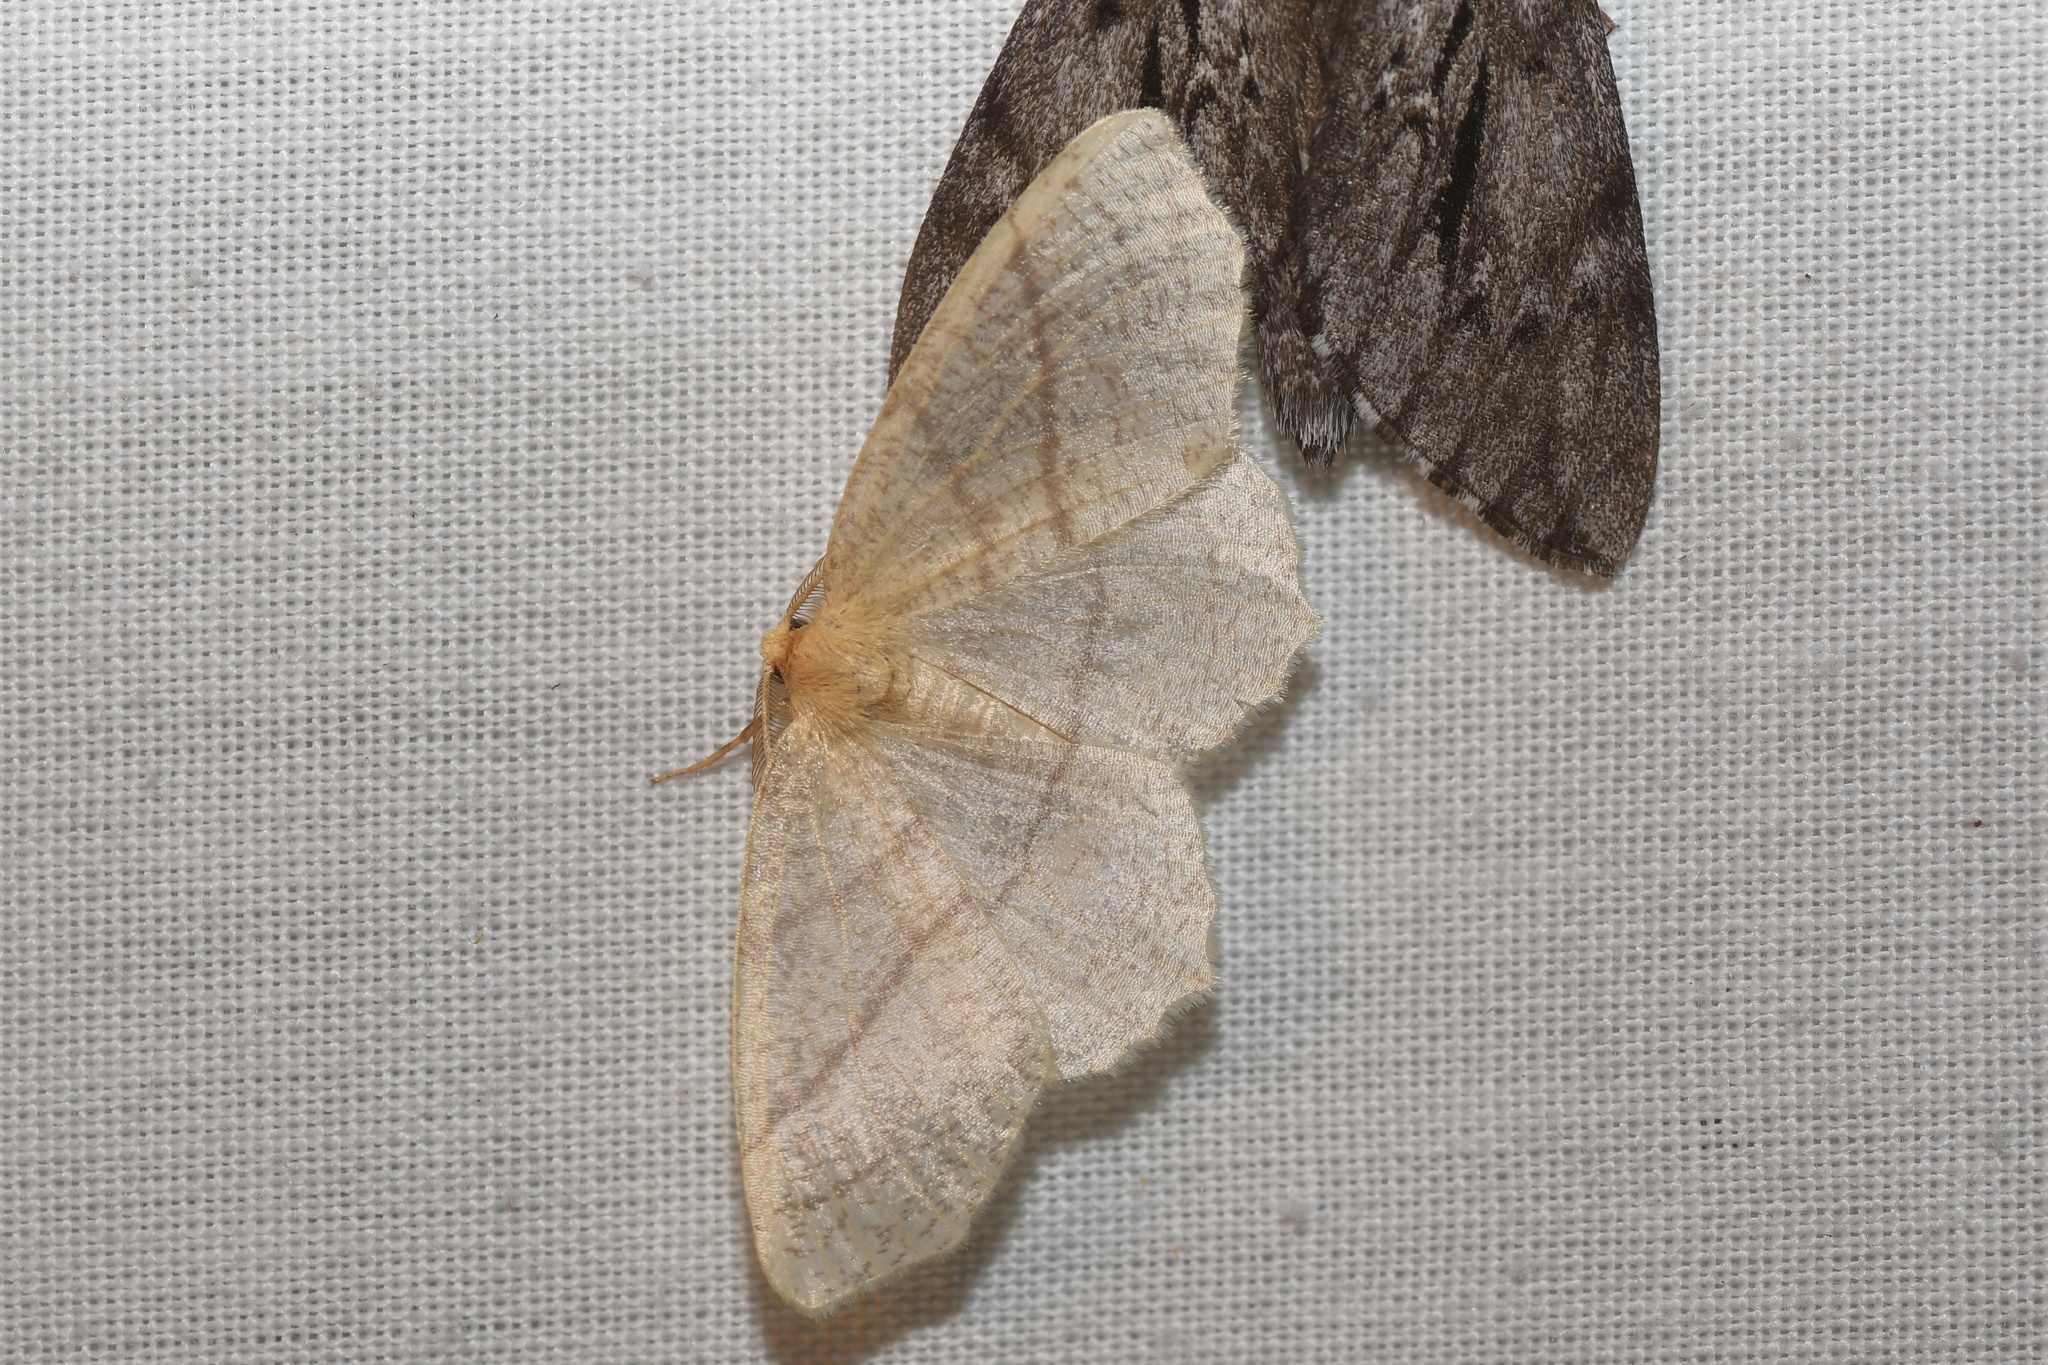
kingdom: Animalia
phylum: Arthropoda
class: Insecta
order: Lepidoptera
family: Geometridae
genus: Besma
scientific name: Besma endropiaria
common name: Straw besma
